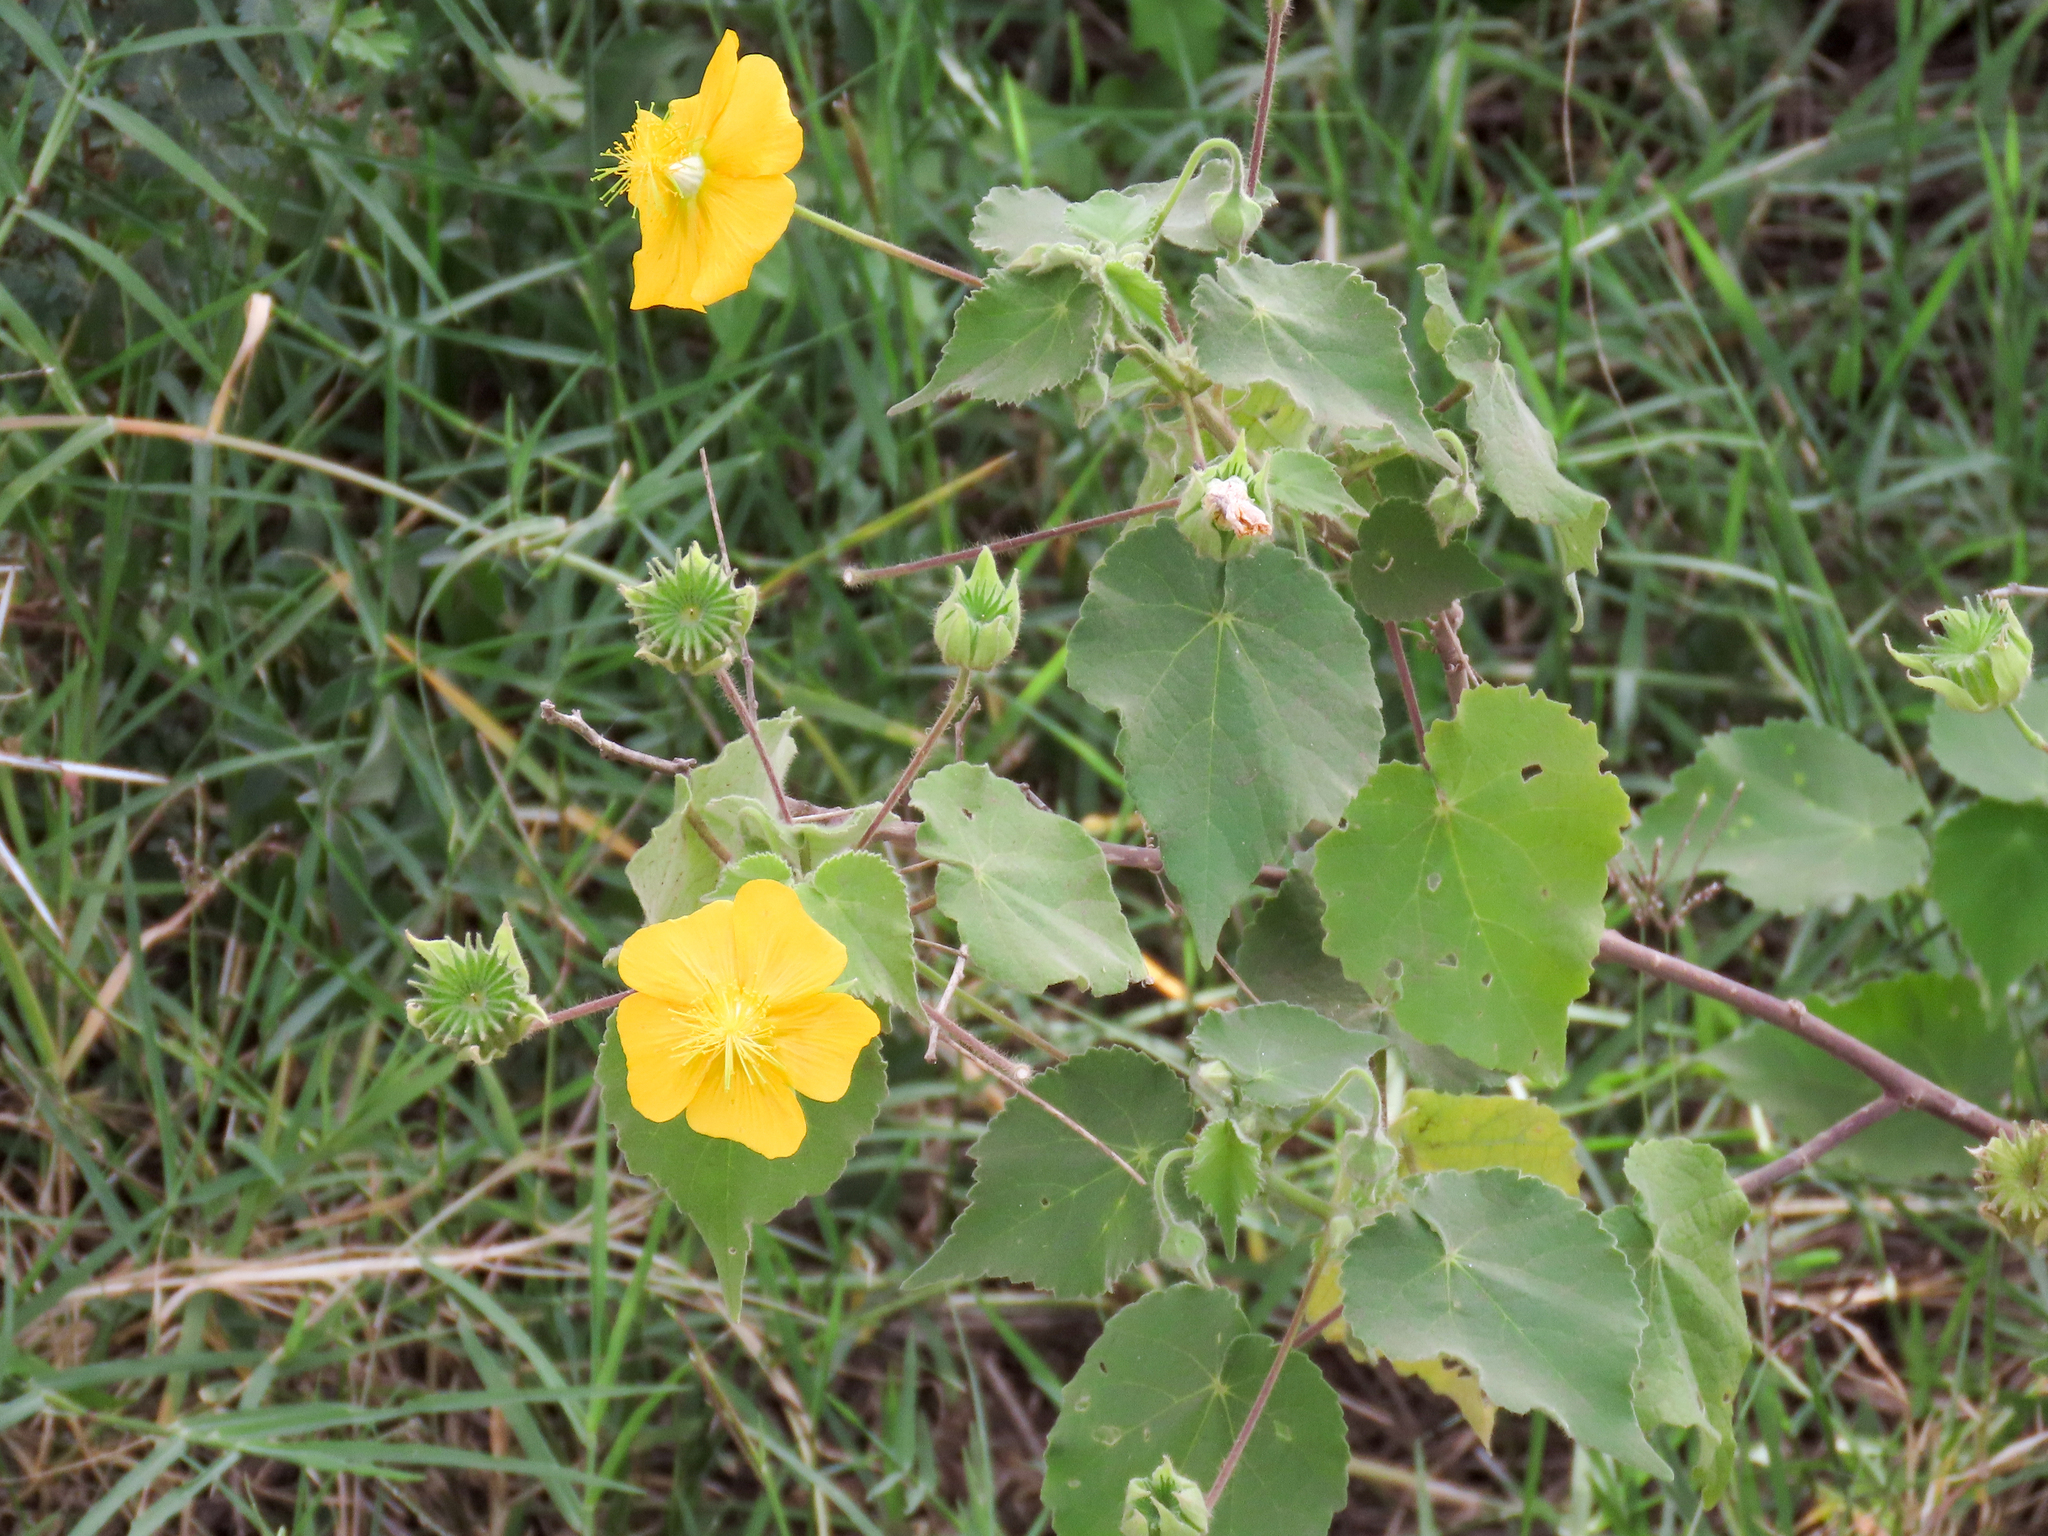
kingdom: Plantae
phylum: Tracheophyta
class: Magnoliopsida
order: Malvales
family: Malvaceae
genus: Abutilon
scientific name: Abutilon mauritianum
